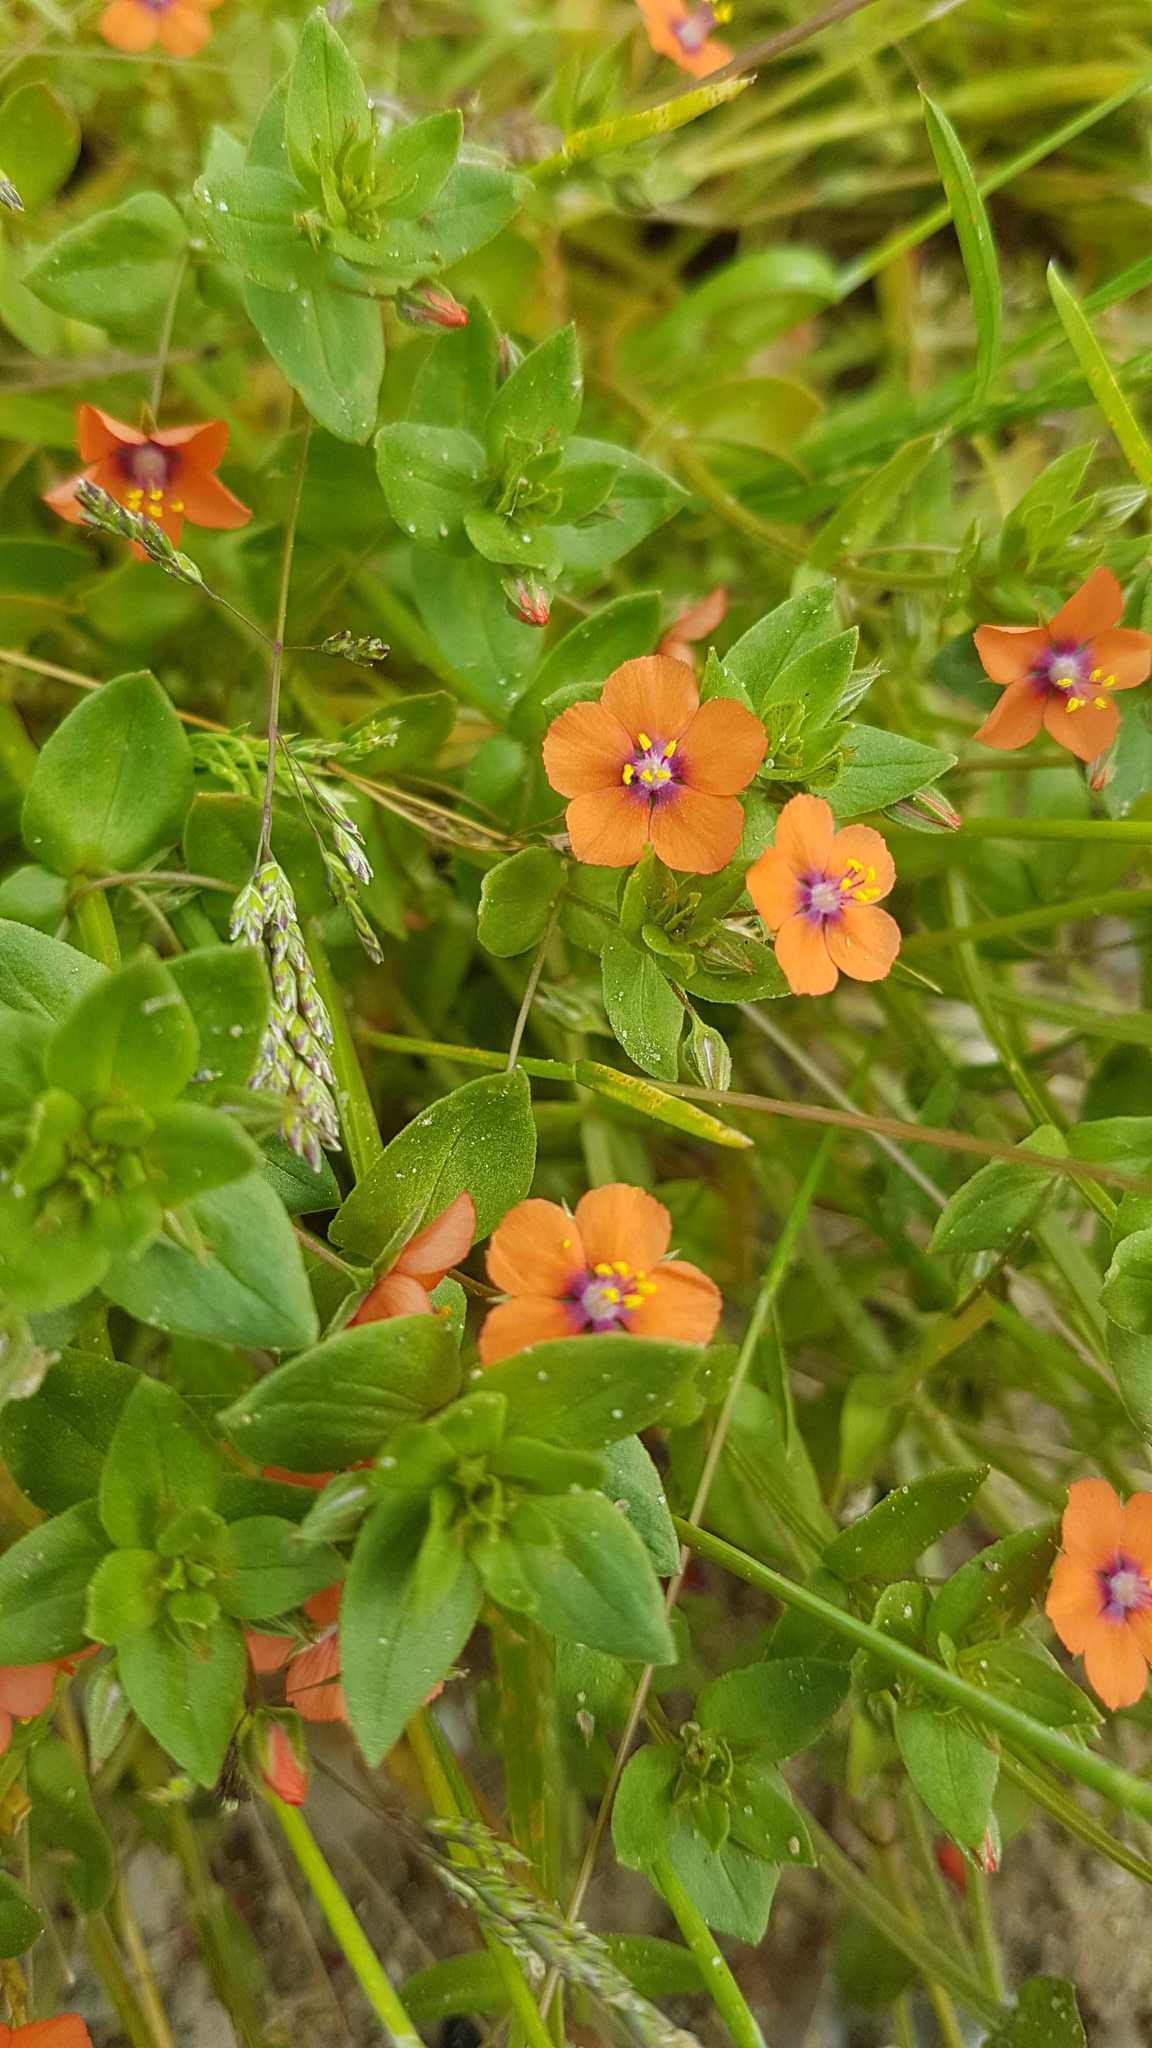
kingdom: Plantae
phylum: Tracheophyta
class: Magnoliopsida
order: Ericales
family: Primulaceae
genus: Lysimachia
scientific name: Lysimachia arvensis
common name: Scarlet pimpernel
